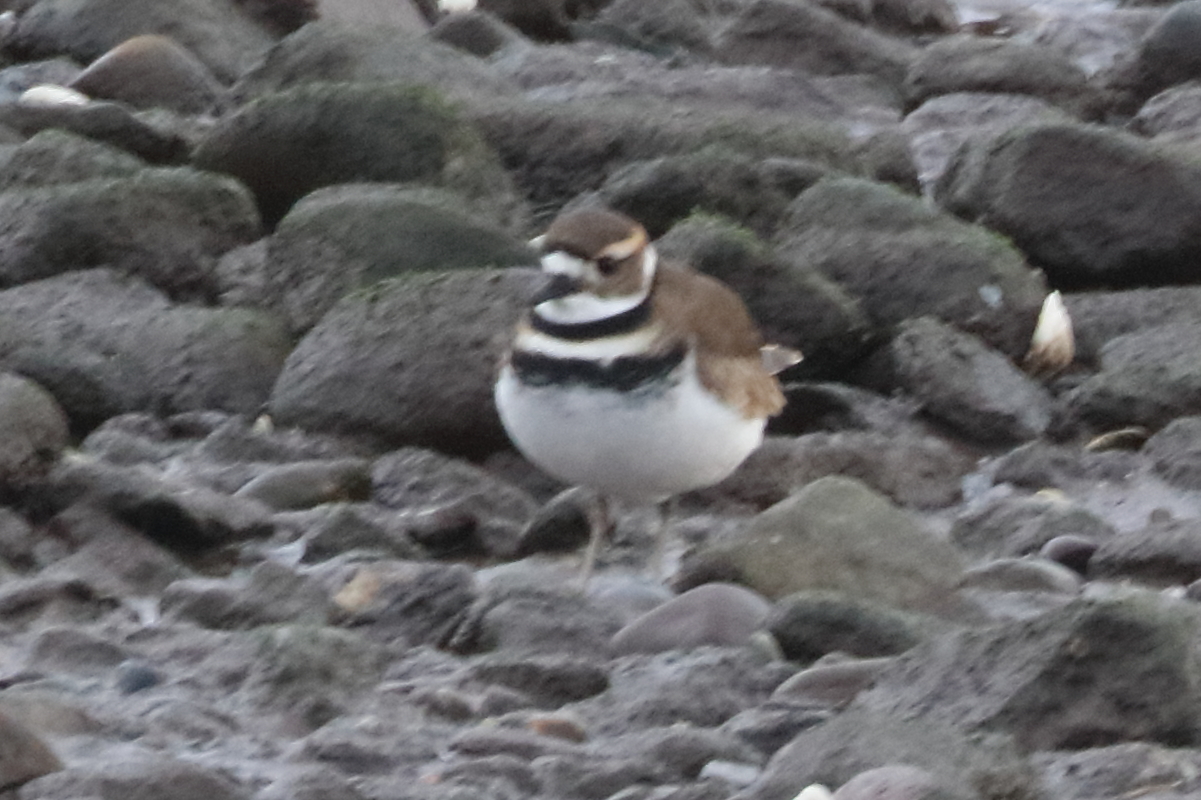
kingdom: Animalia
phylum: Chordata
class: Aves
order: Charadriiformes
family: Charadriidae
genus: Charadrius
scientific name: Charadrius vociferus
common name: Killdeer
